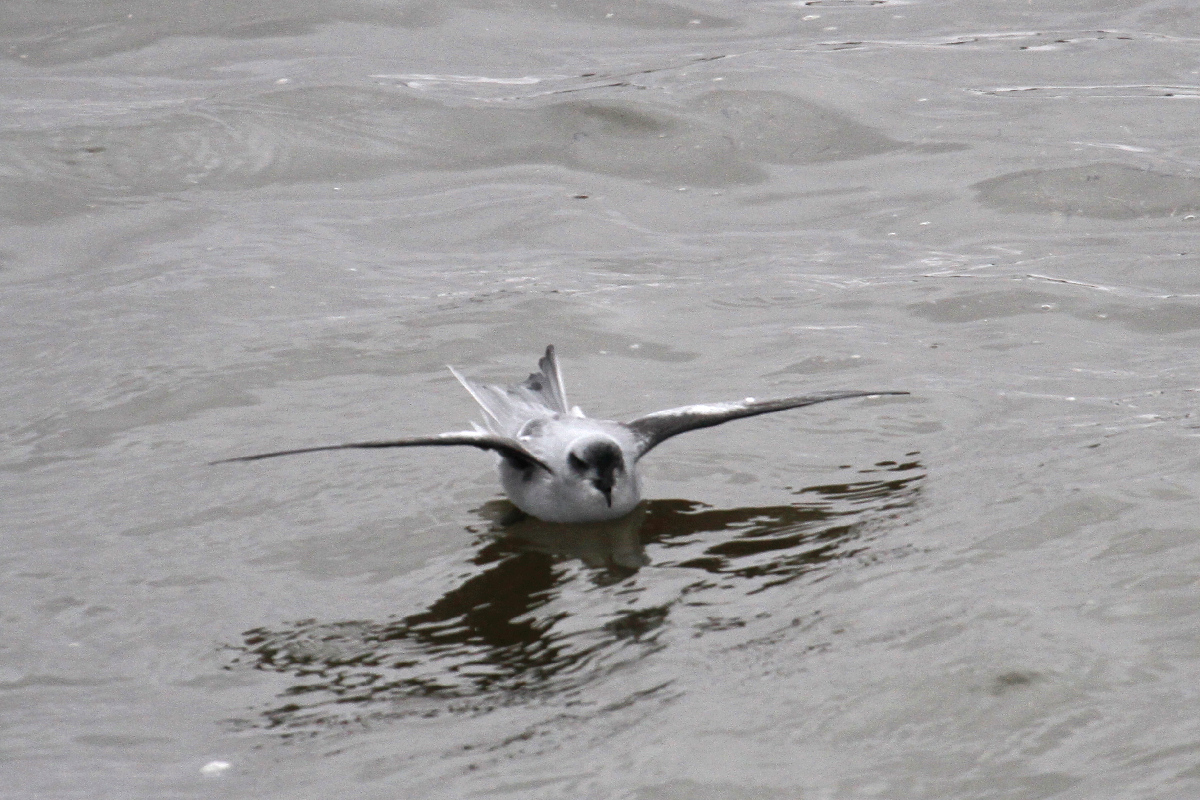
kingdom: Animalia
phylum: Chordata
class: Aves
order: Procellariiformes
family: Hydrobatidae
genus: Oceanodroma
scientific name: Oceanodroma furcata
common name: Fork-tailed storm-petrel
